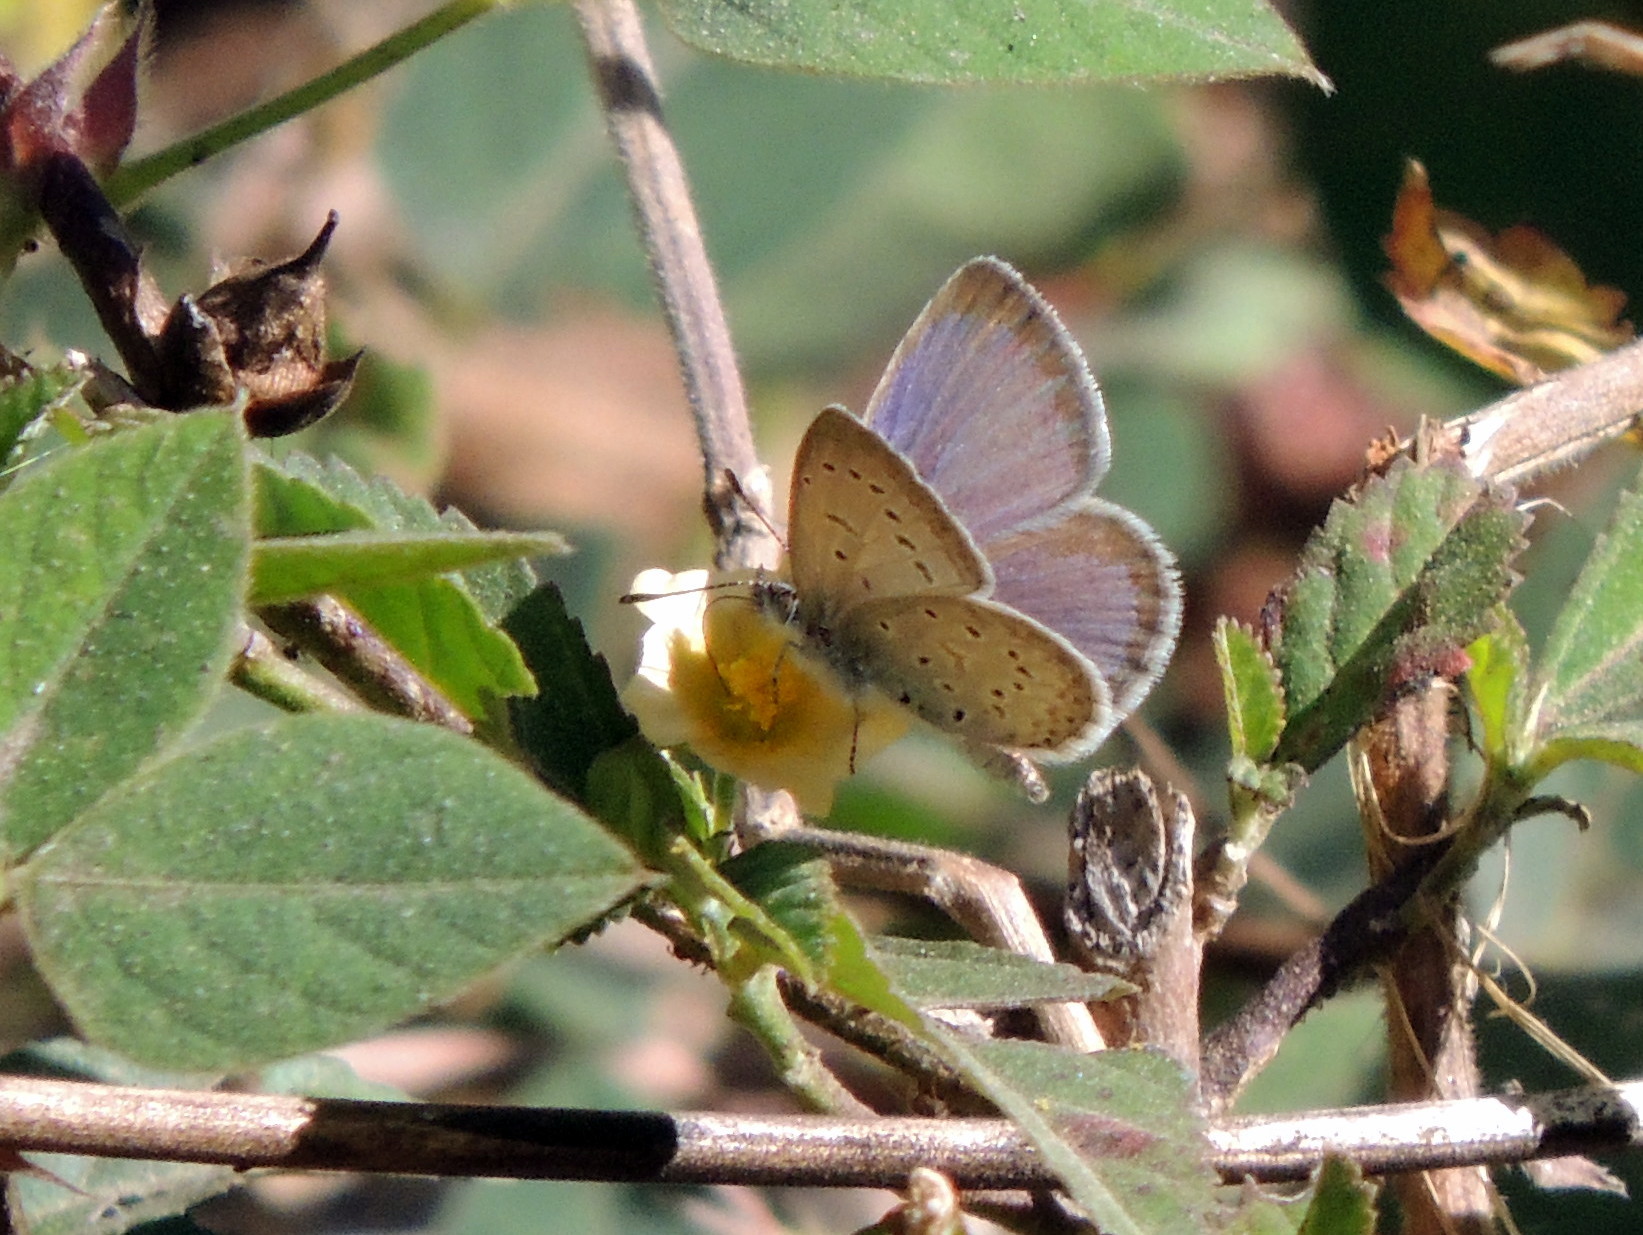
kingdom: Animalia
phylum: Arthropoda
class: Insecta
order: Lepidoptera
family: Lycaenidae
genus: Zizeeria
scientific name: Zizeeria knysna
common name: African grass blue
